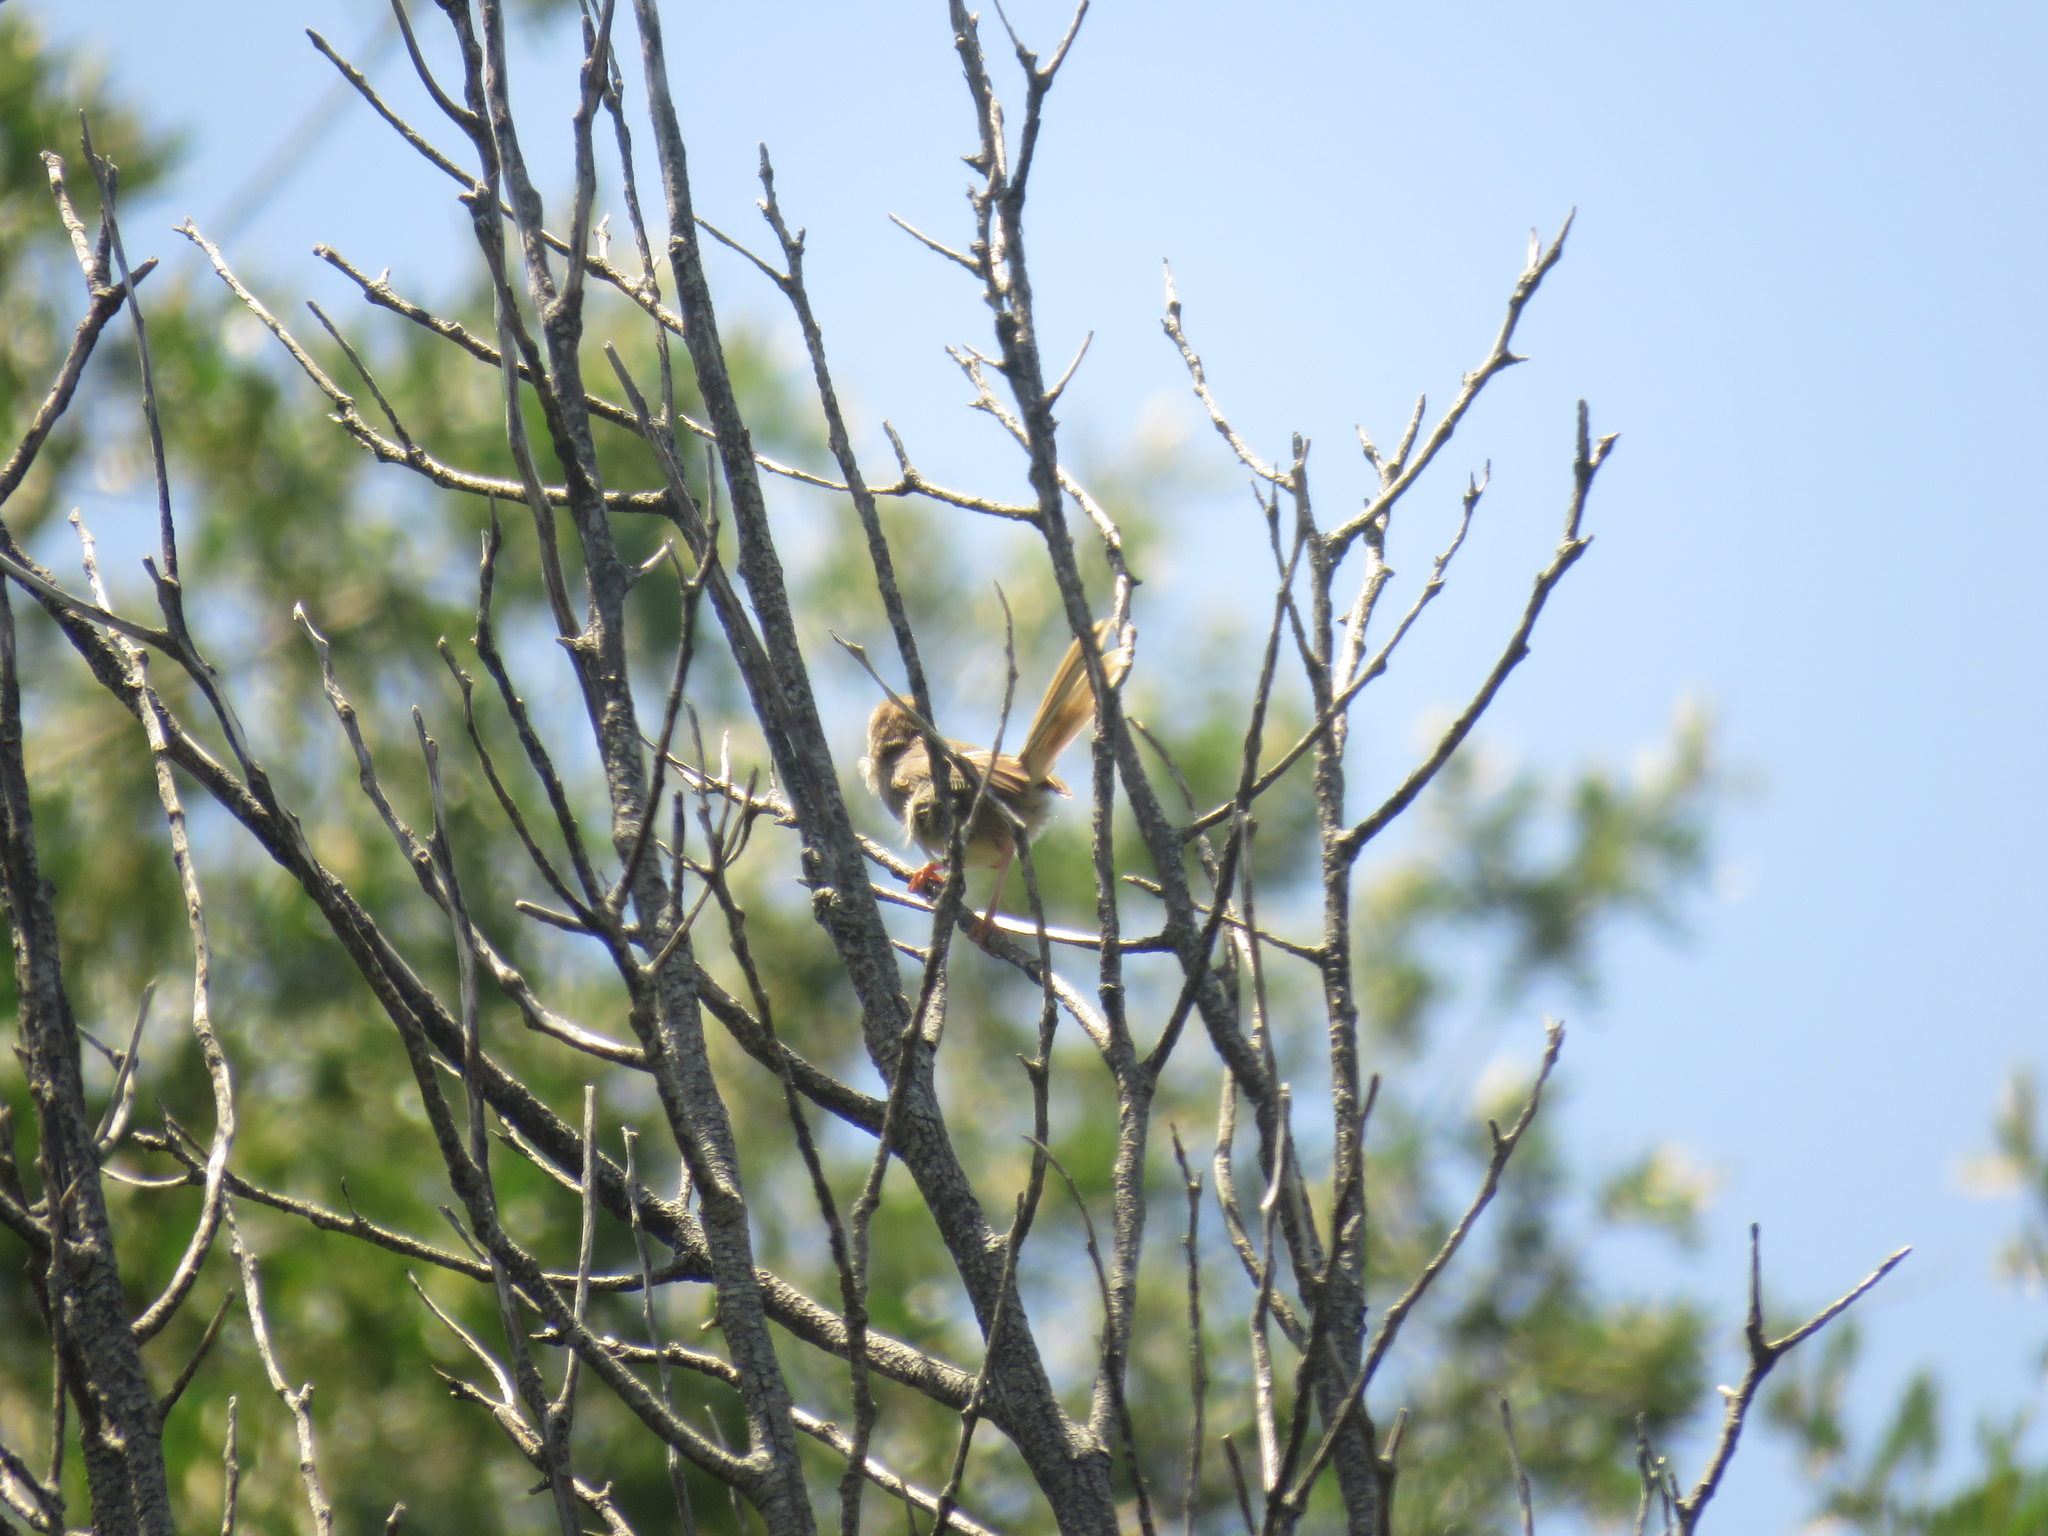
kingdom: Animalia
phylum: Chordata
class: Aves
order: Passeriformes
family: Cisticolidae
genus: Cisticola
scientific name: Cisticola aberrans
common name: Lazy cisticola
